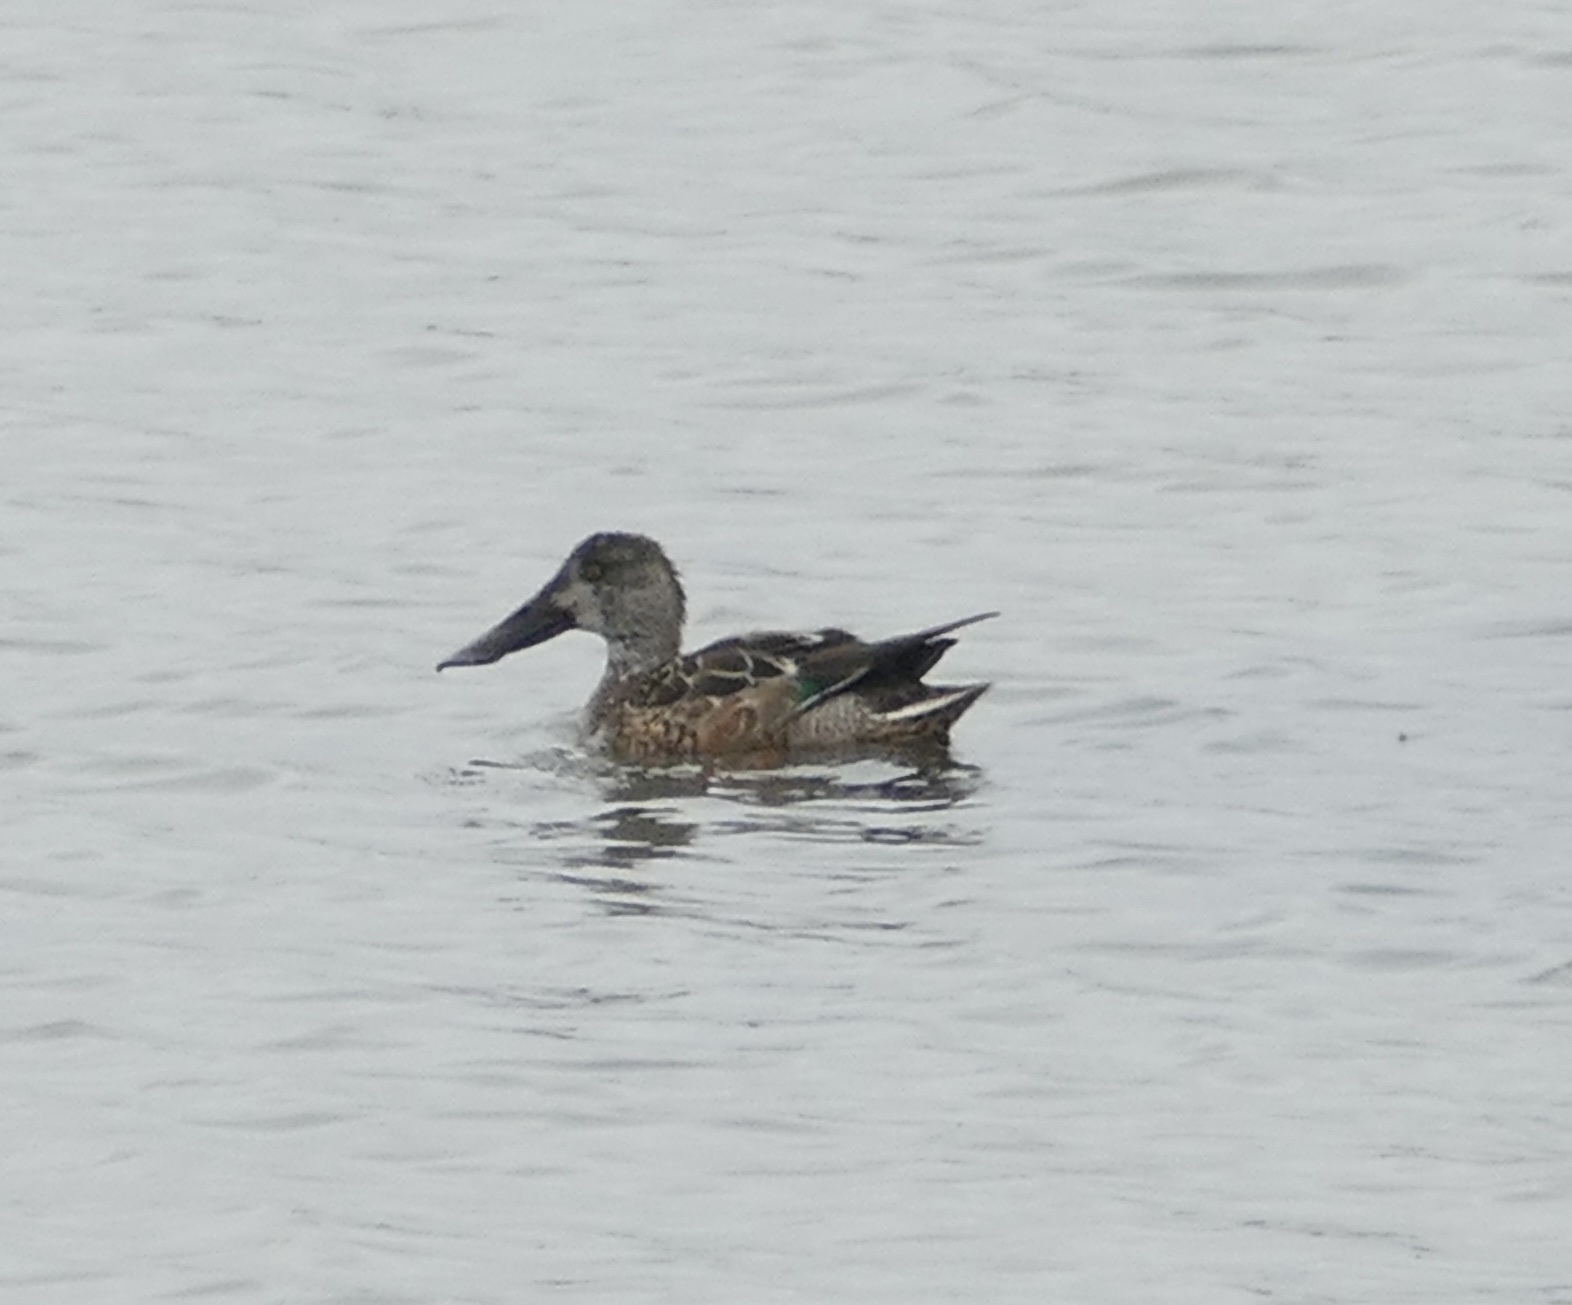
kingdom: Animalia
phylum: Chordata
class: Aves
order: Anseriformes
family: Anatidae
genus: Spatula
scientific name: Spatula clypeata
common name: Northern shoveler
